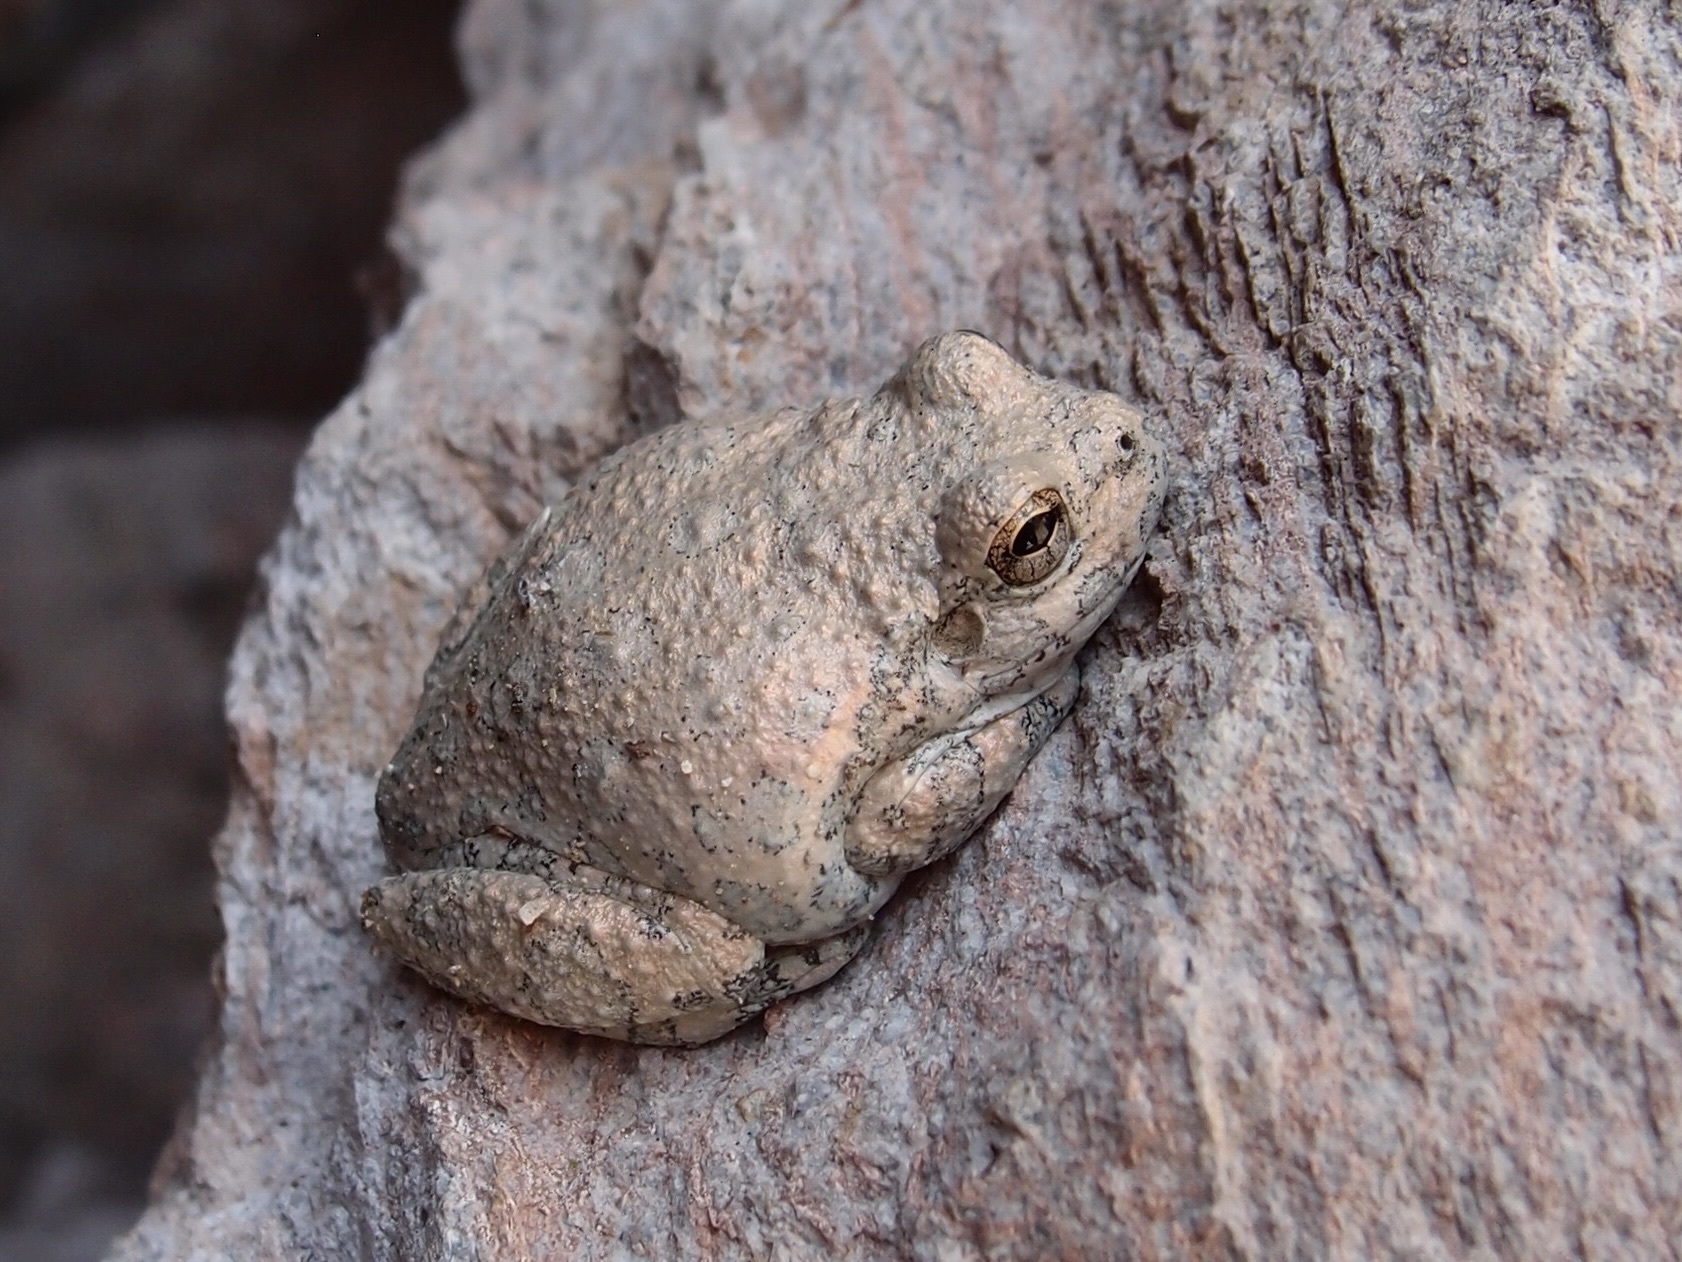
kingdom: Animalia
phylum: Chordata
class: Amphibia
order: Anura
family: Hylidae
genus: Dryophytes
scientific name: Dryophytes arenicolor
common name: Canyon treefrog
